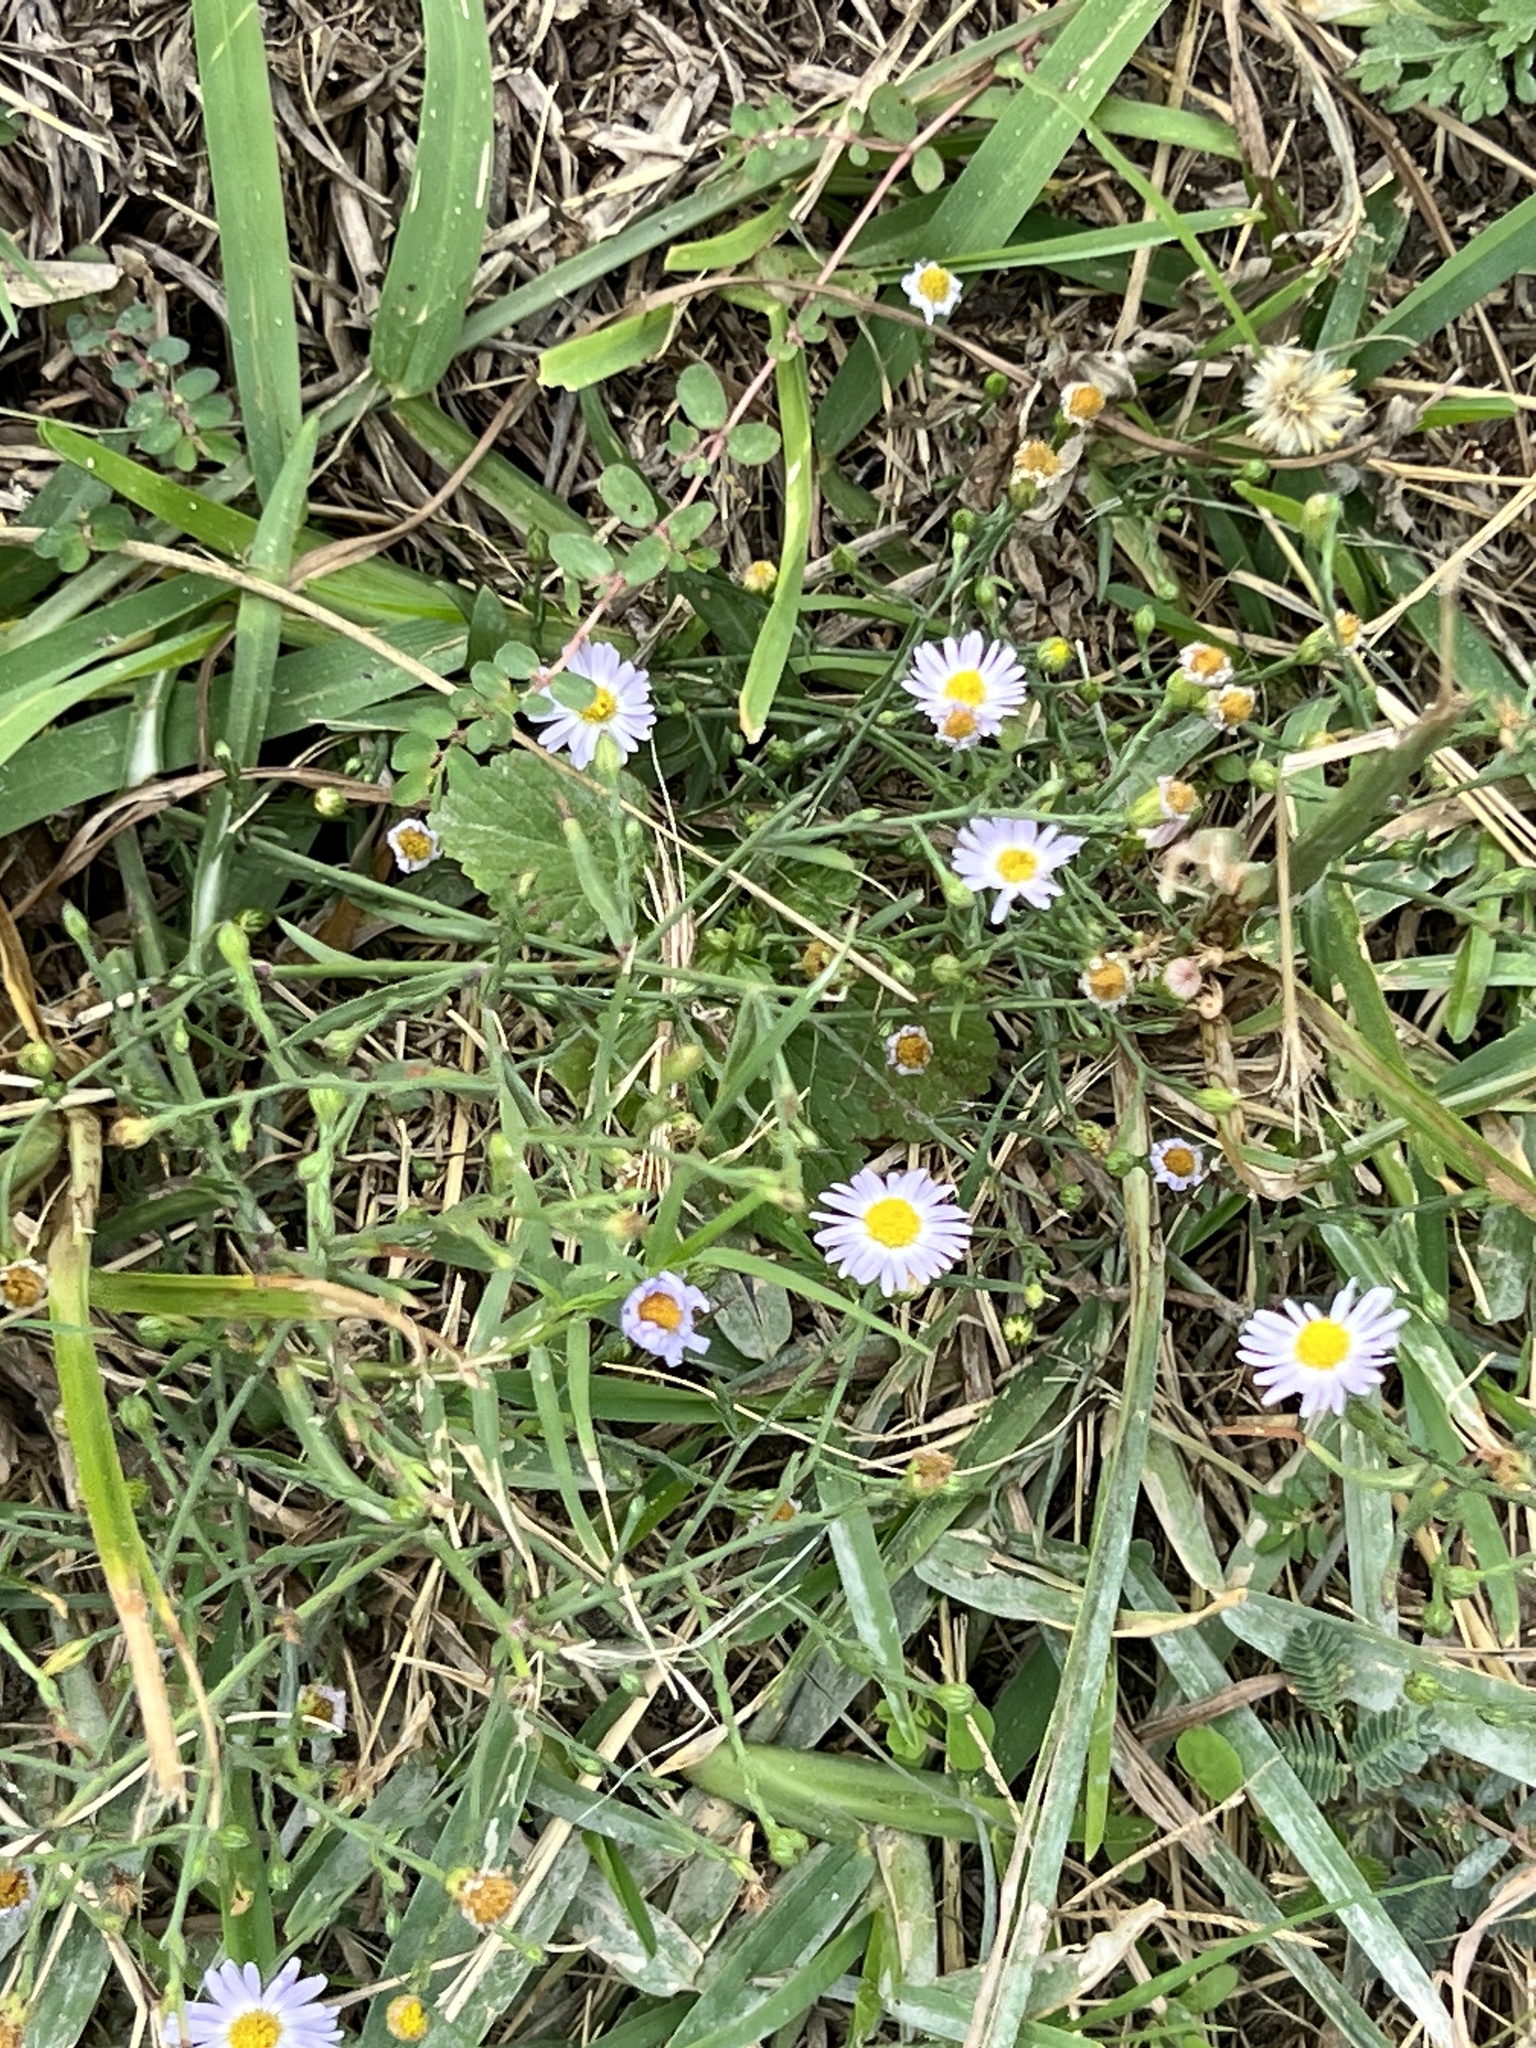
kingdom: Plantae
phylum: Tracheophyta
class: Magnoliopsida
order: Asterales
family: Asteraceae
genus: Symphyotrichum
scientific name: Symphyotrichum divaricatum
